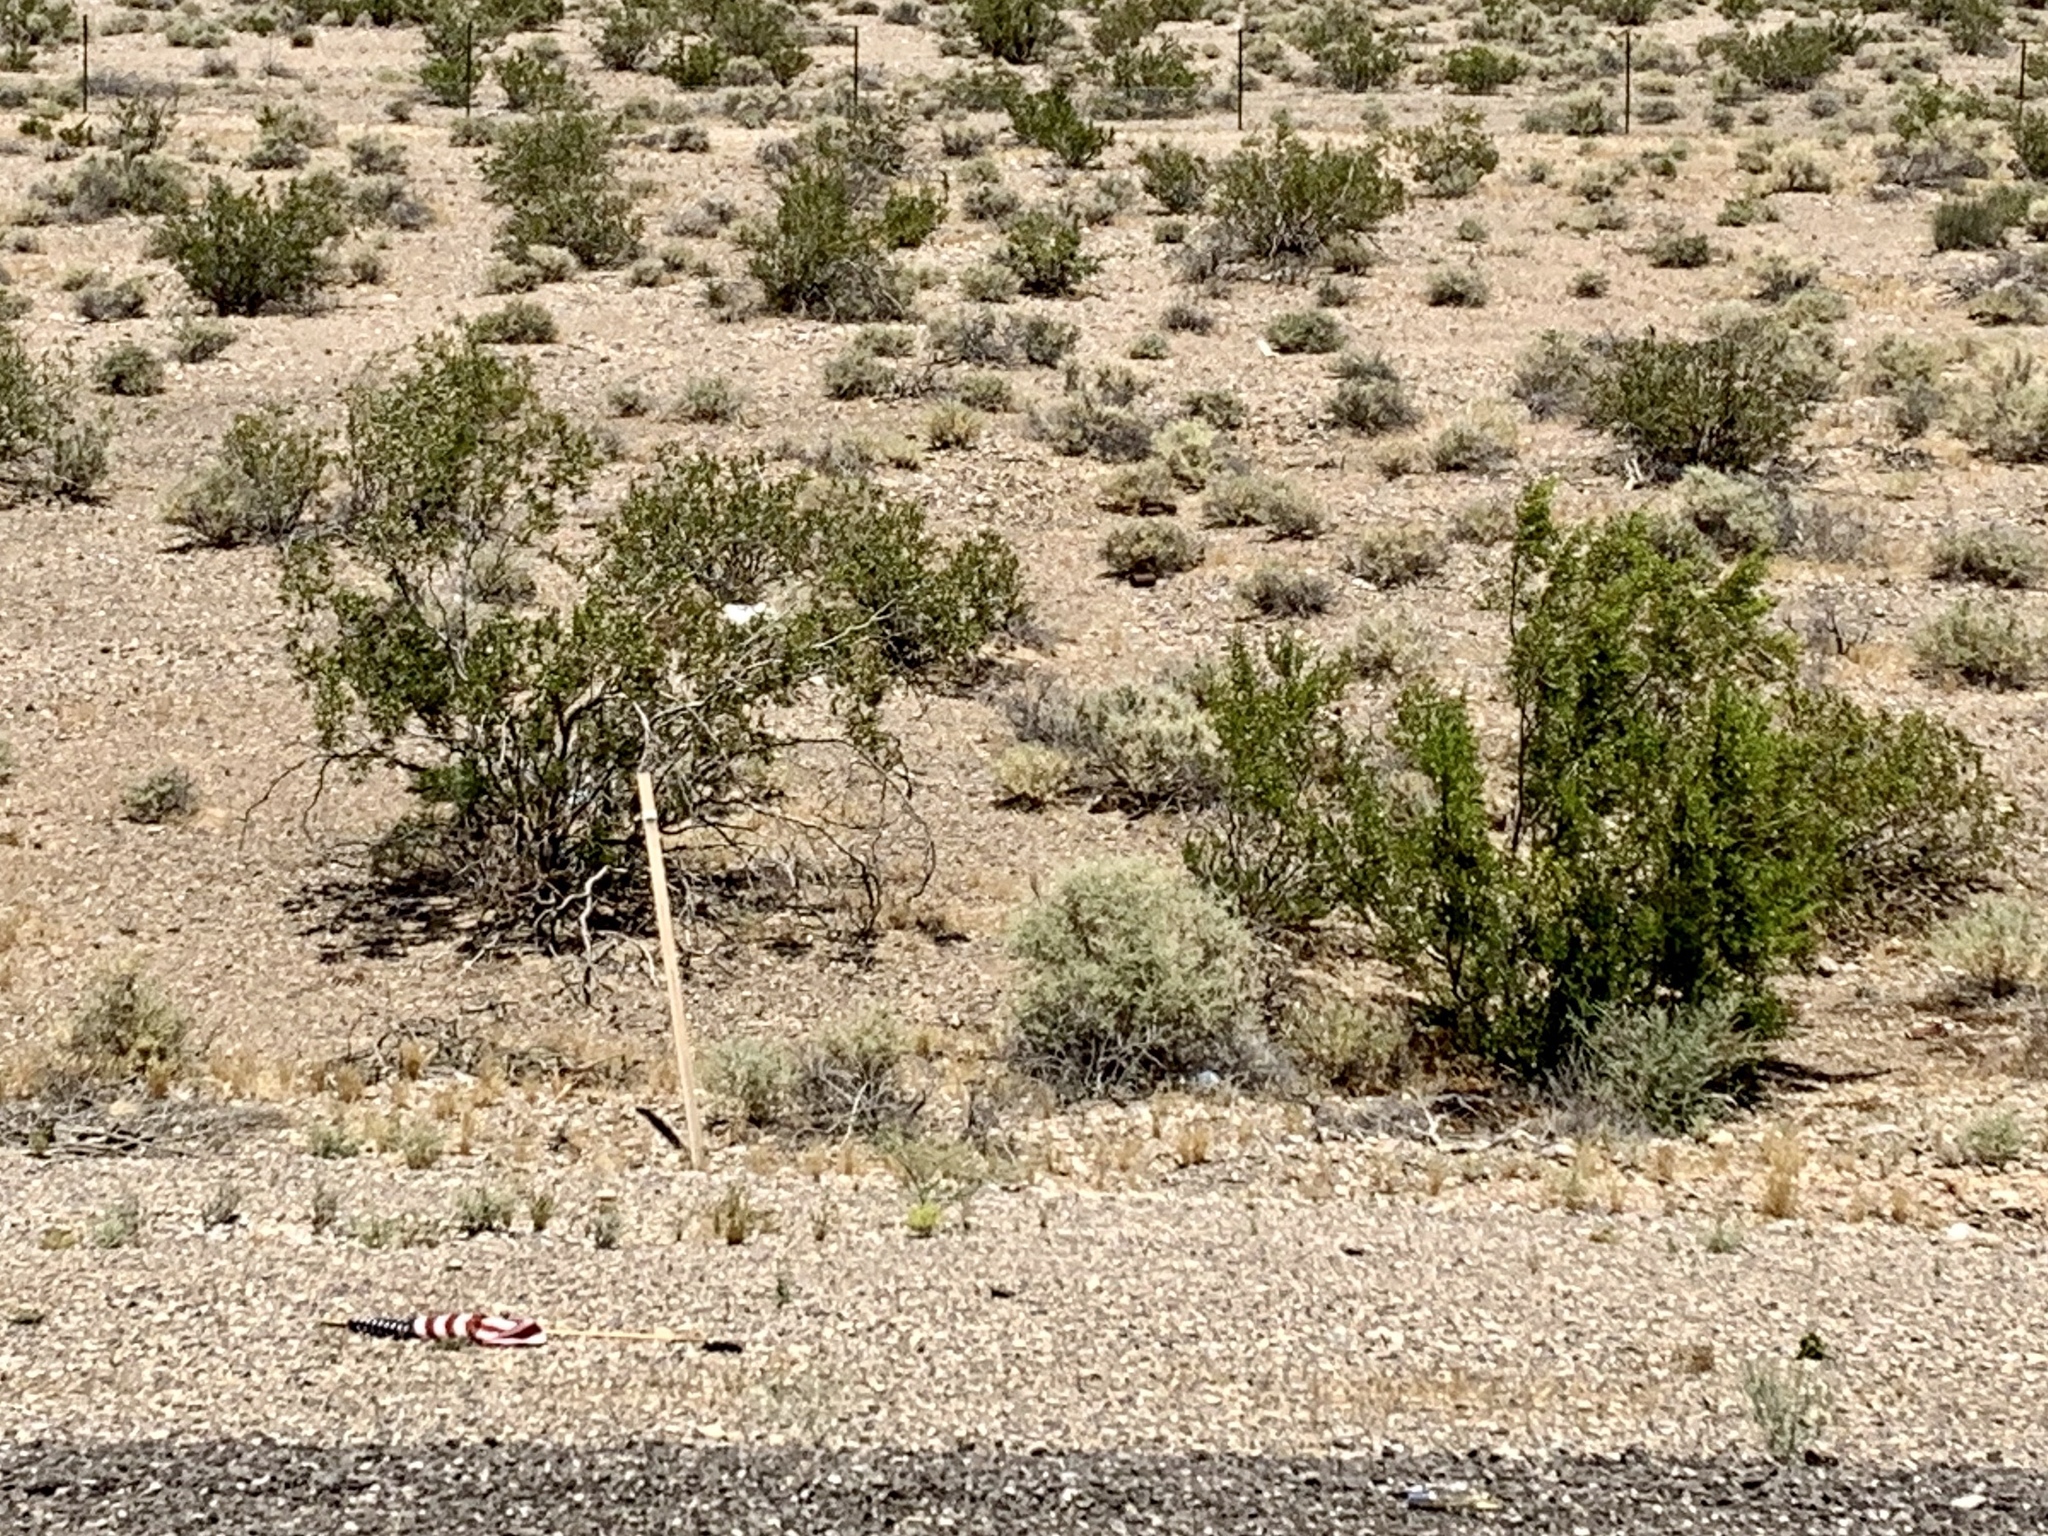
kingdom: Plantae
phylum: Tracheophyta
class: Magnoliopsida
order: Zygophyllales
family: Zygophyllaceae
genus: Larrea
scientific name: Larrea tridentata
